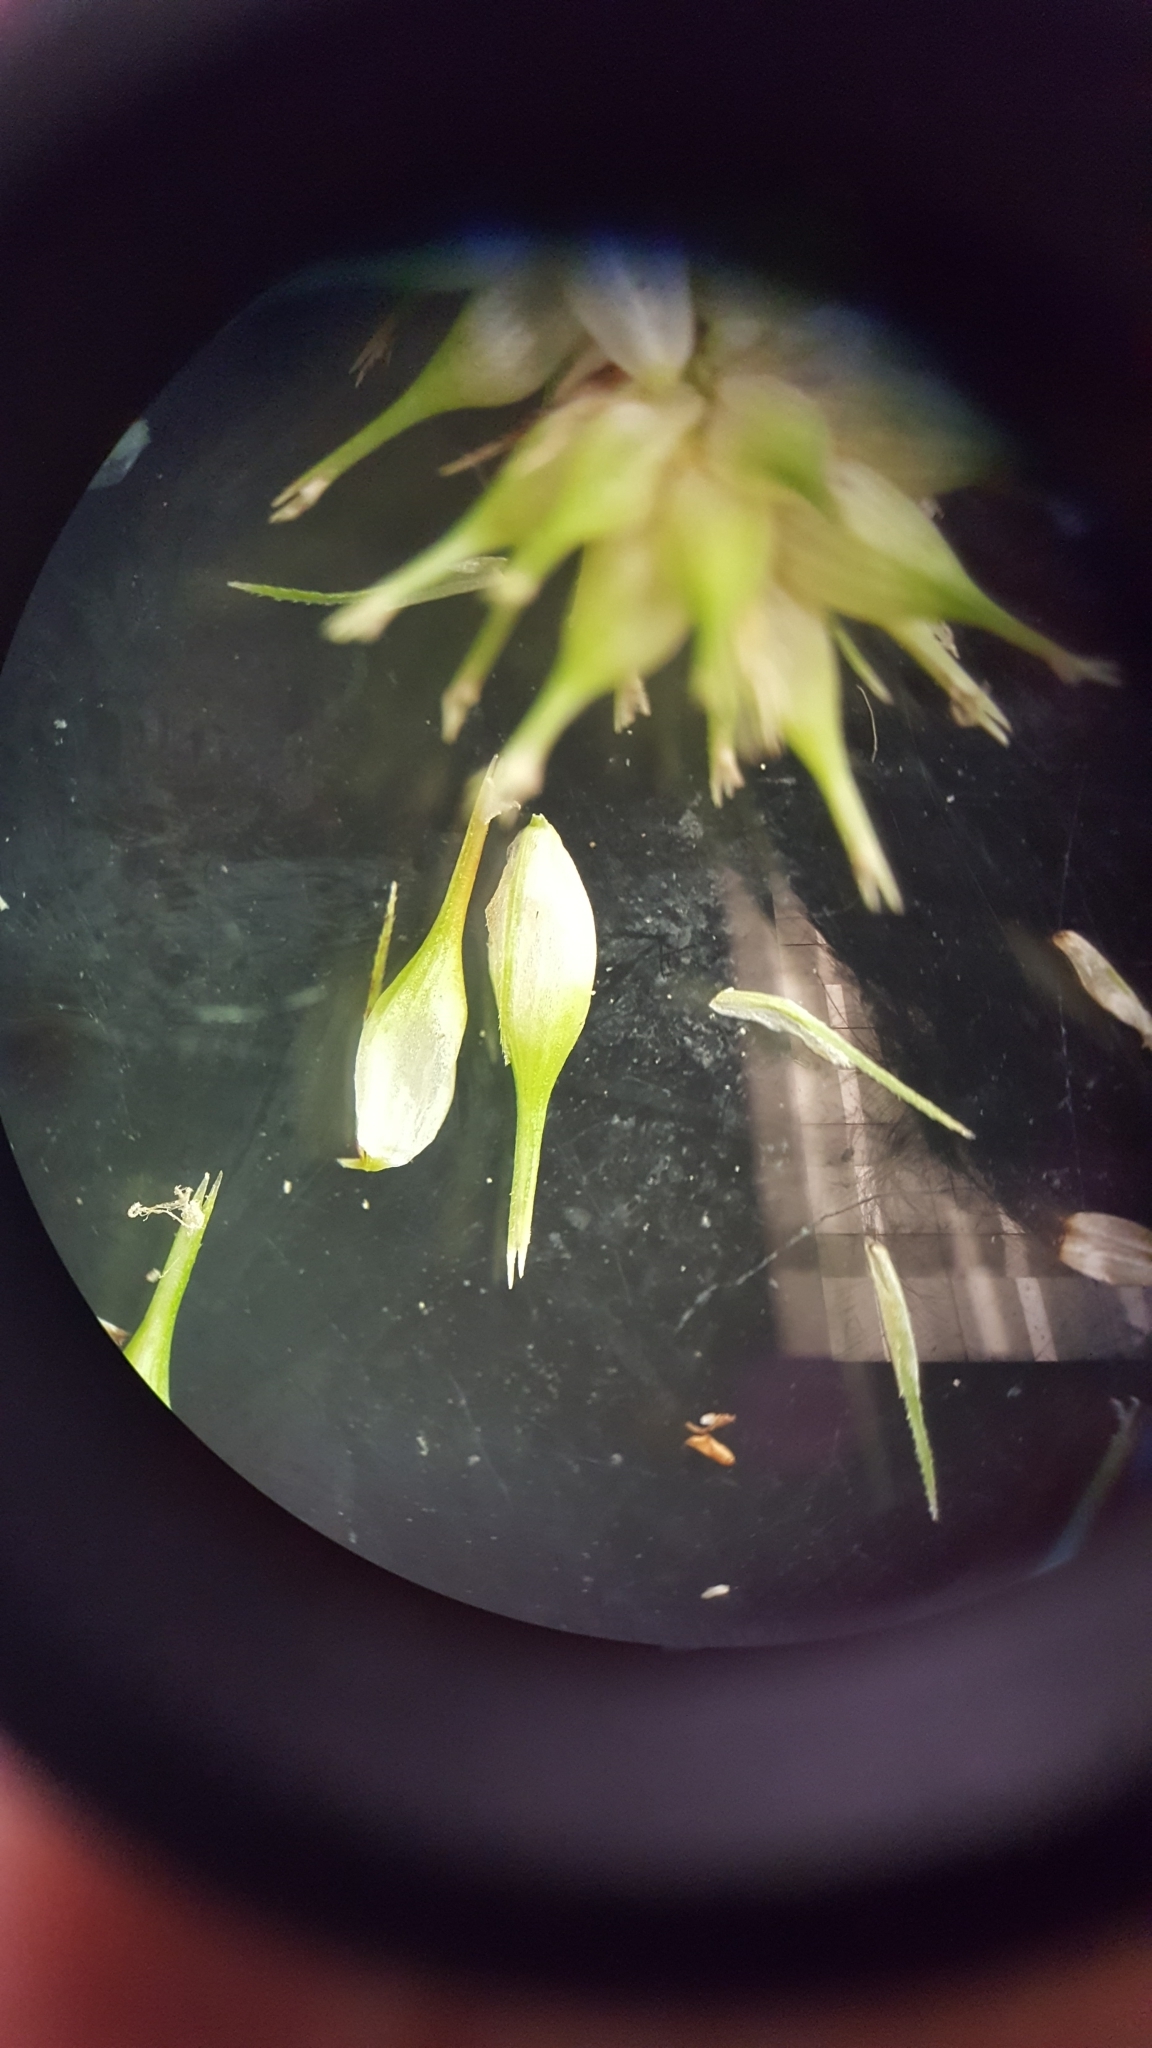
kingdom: Plantae
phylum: Tracheophyta
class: Liliopsida
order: Poales
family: Cyperaceae
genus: Carex
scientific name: Carex hystericina
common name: Bottlebrush sedge
